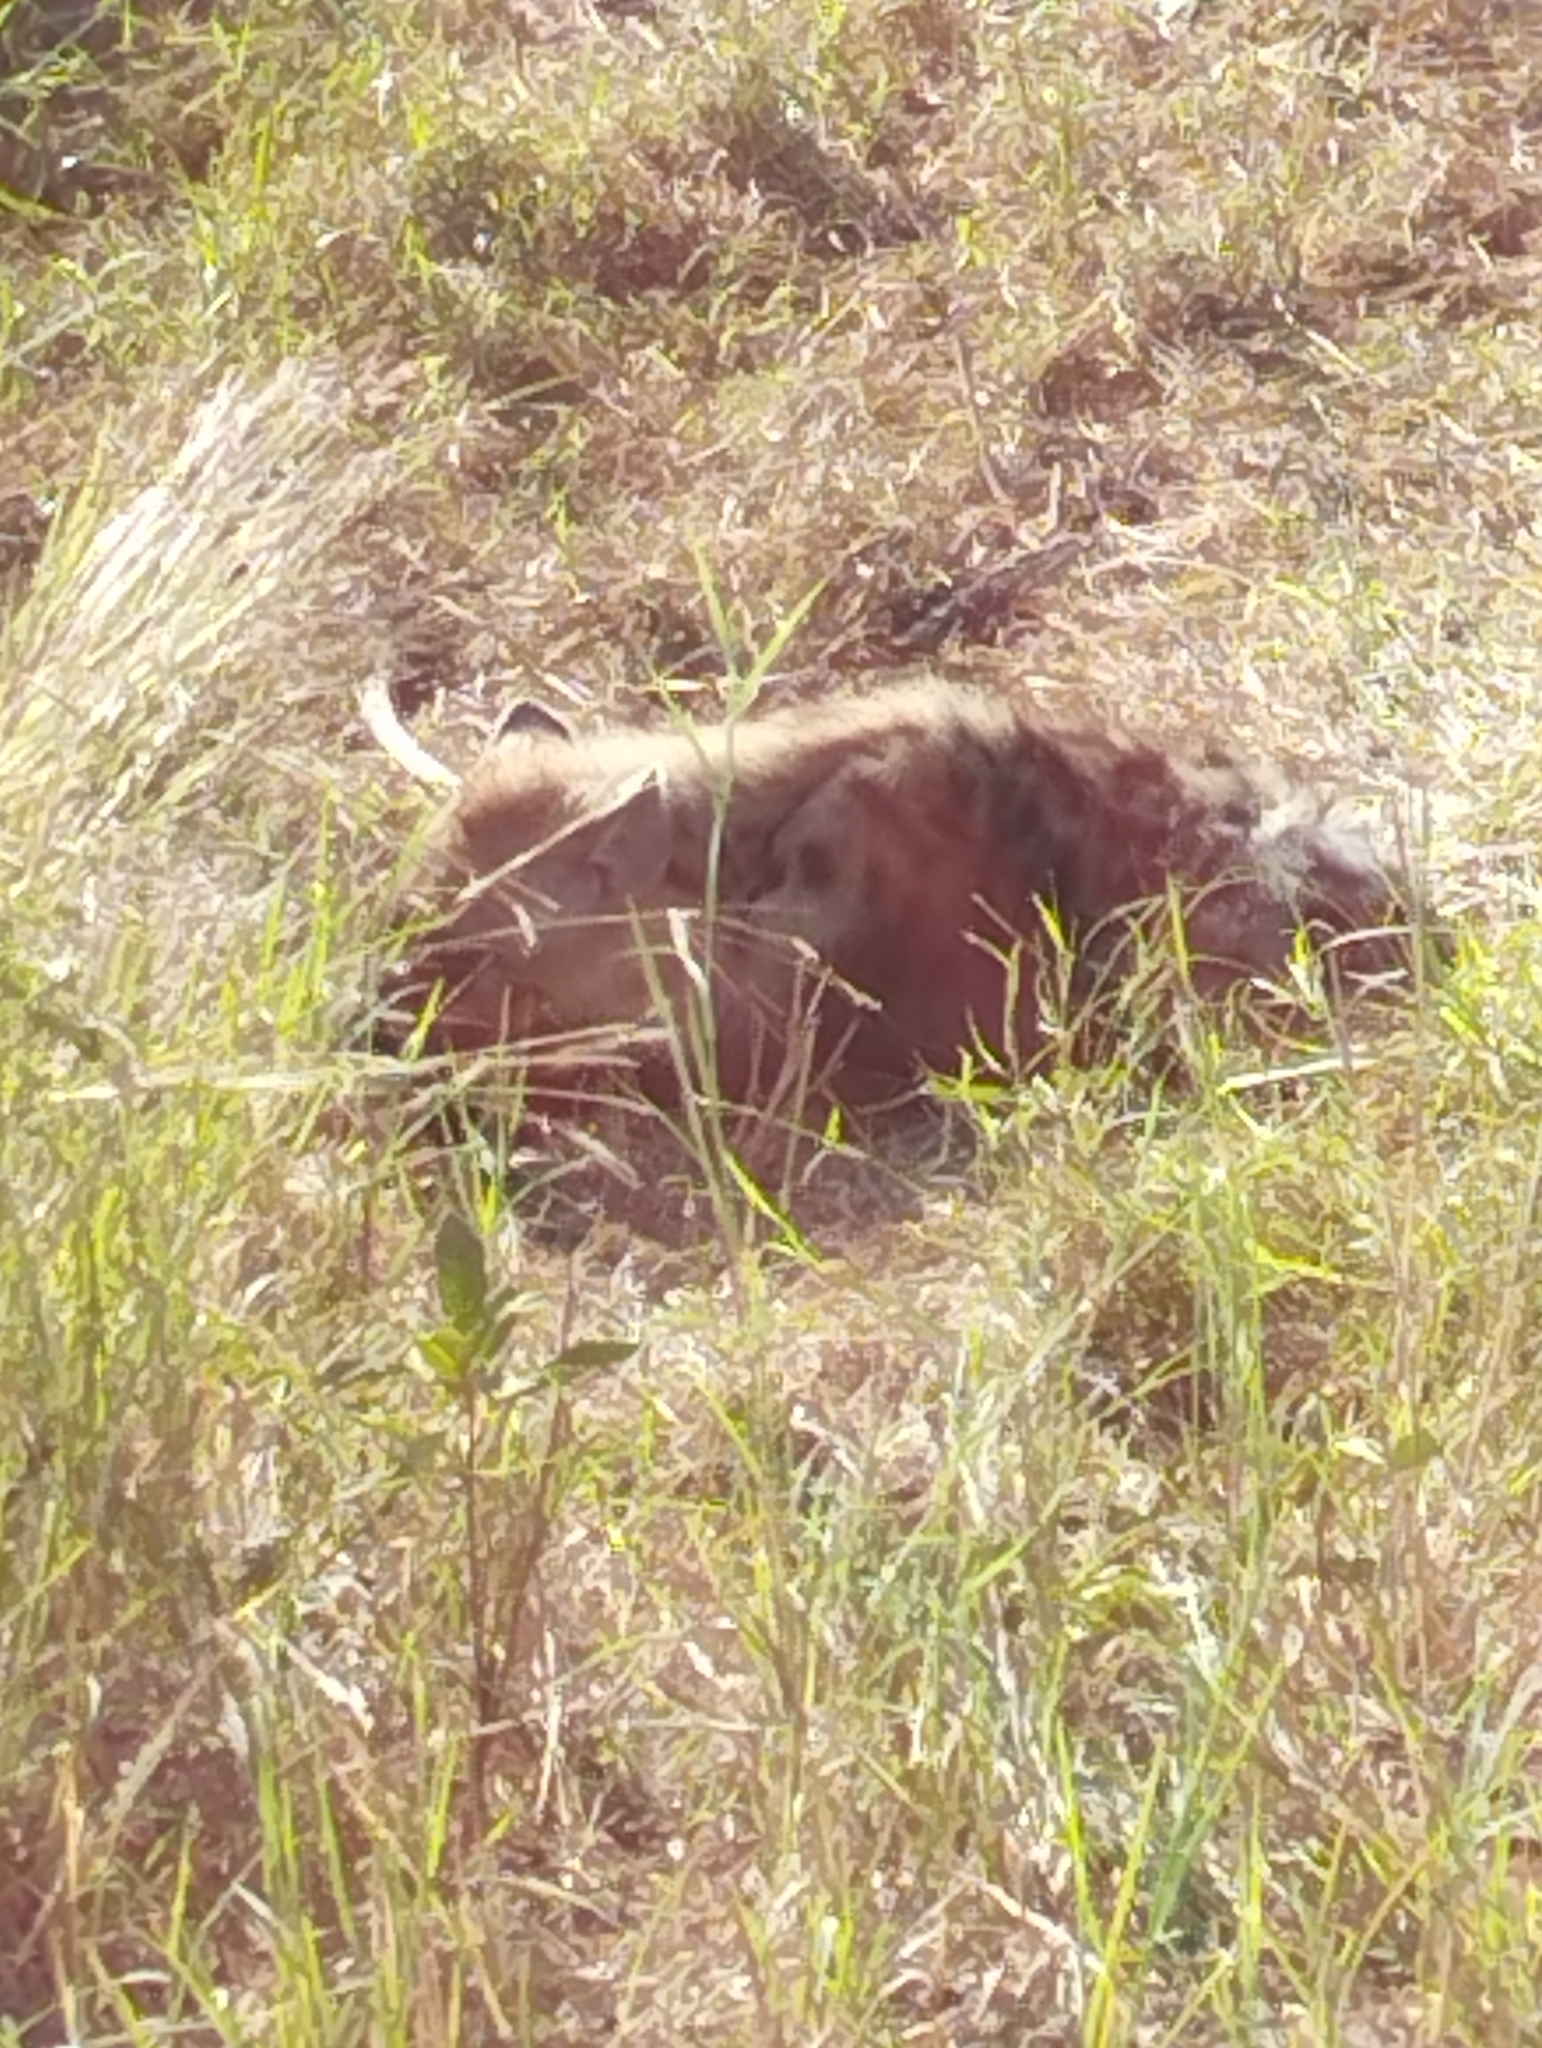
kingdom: Animalia
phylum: Chordata
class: Mammalia
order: Carnivora
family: Hyaenidae
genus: Crocuta
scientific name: Crocuta crocuta
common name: Spotted hyaena
